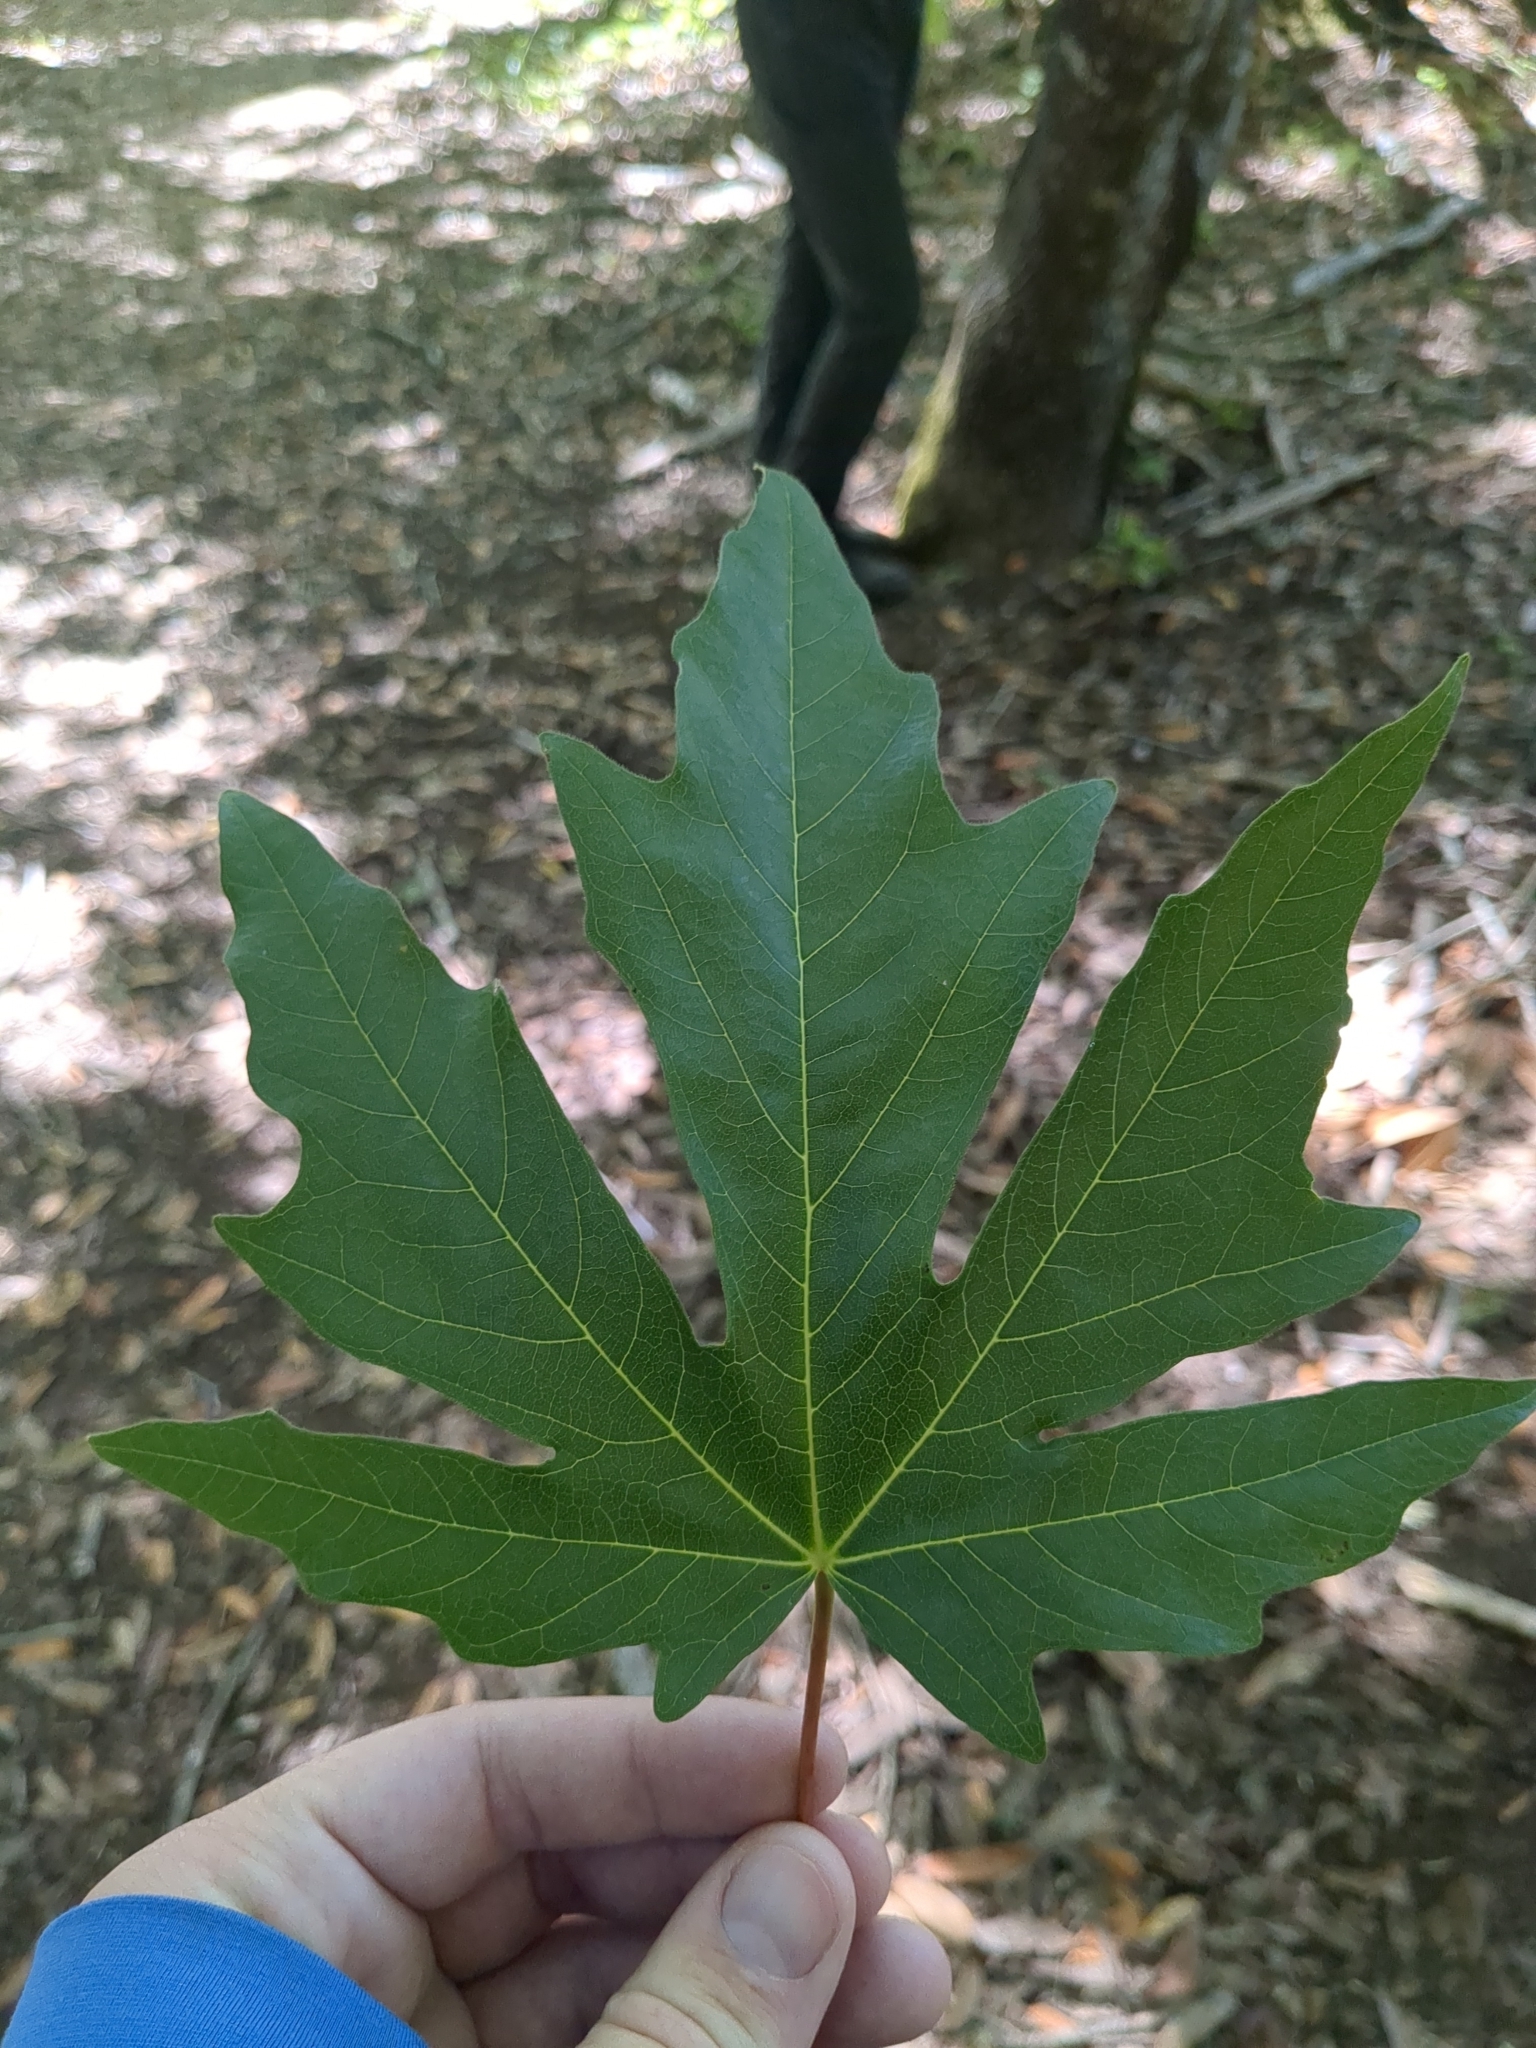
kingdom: Plantae
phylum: Tracheophyta
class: Magnoliopsida
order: Sapindales
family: Sapindaceae
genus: Acer
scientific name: Acer macrophyllum
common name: Oregon maple
